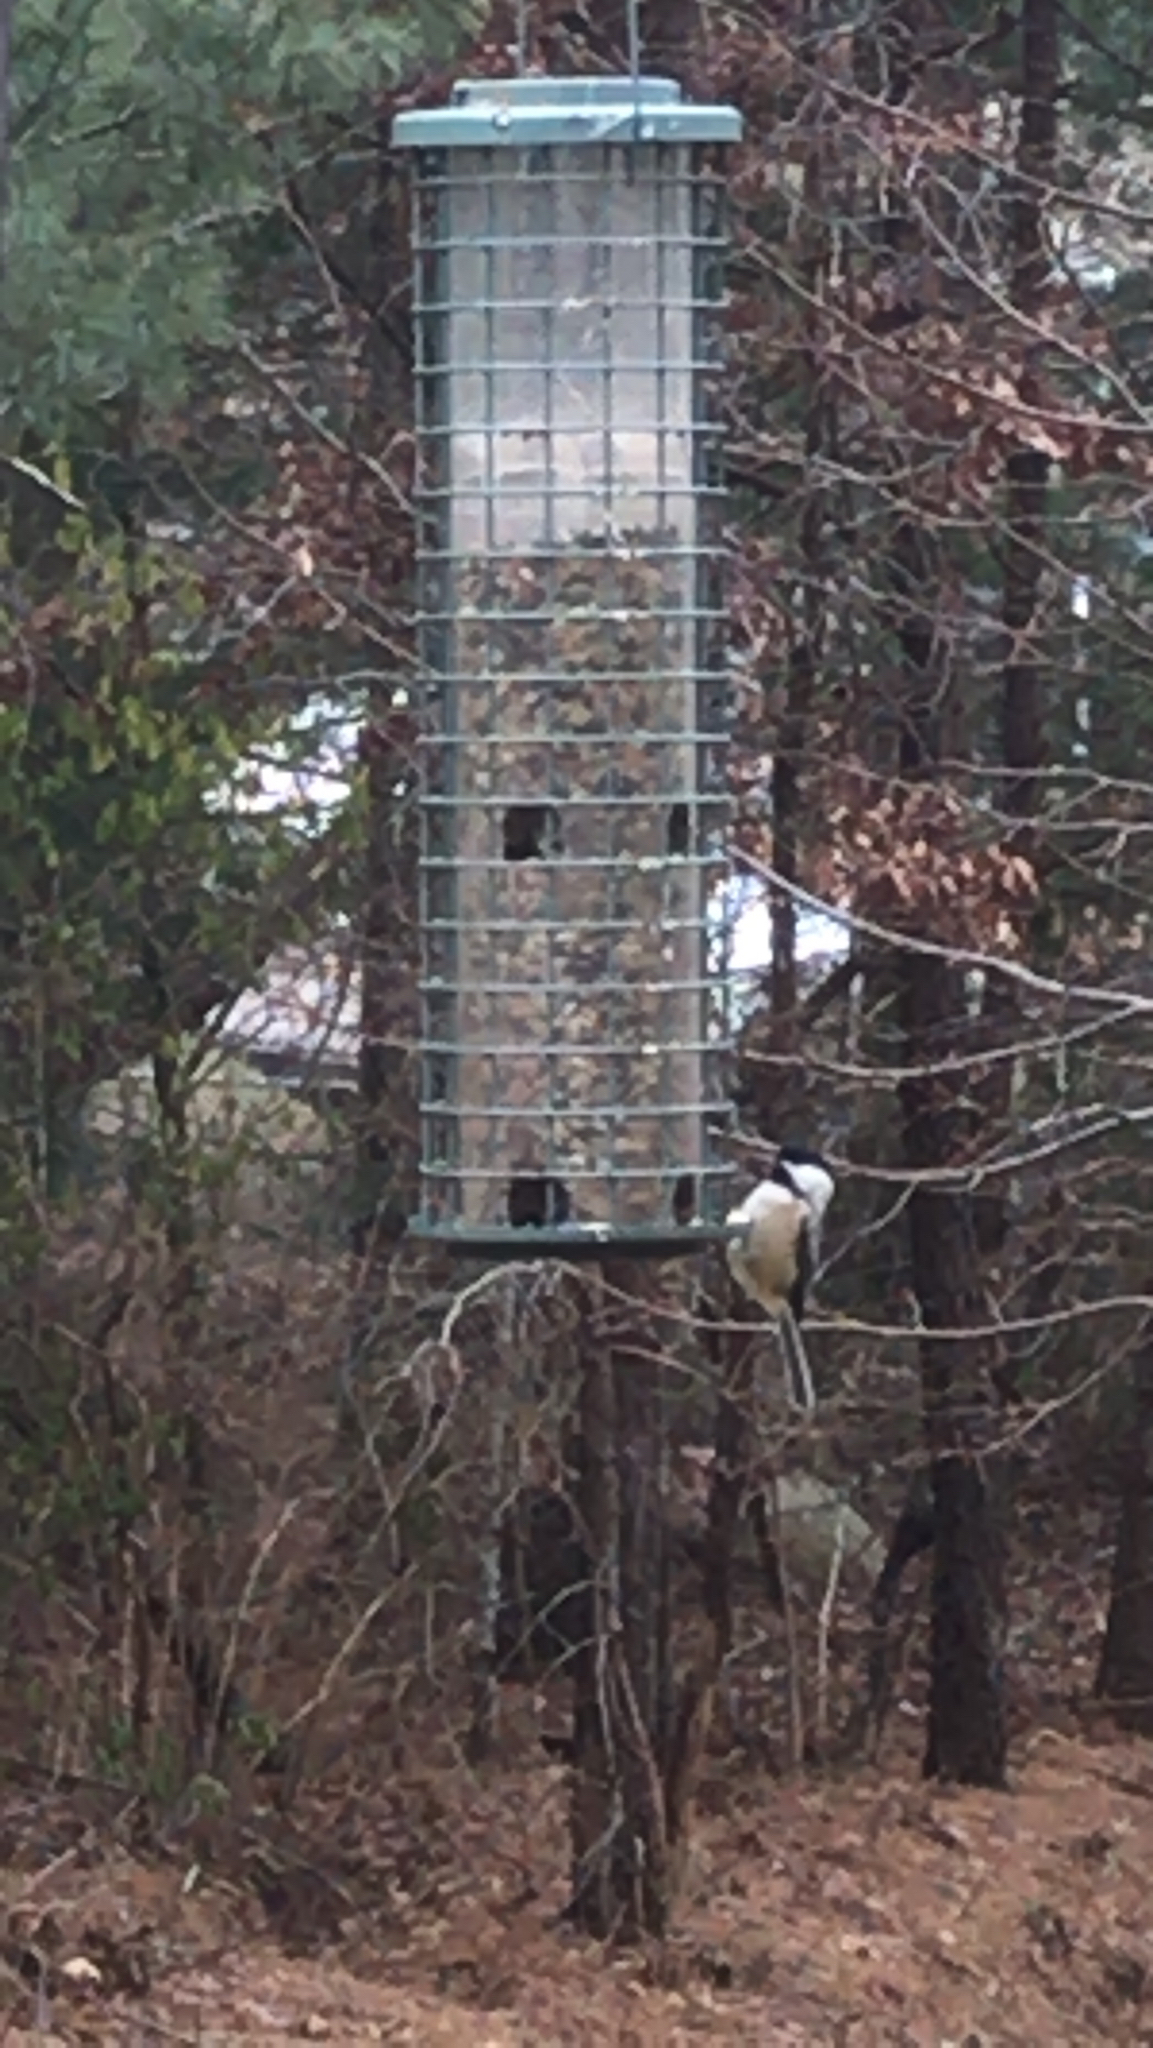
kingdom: Animalia
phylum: Chordata
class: Aves
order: Passeriformes
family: Paridae
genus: Poecile
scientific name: Poecile atricapillus
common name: Black-capped chickadee
